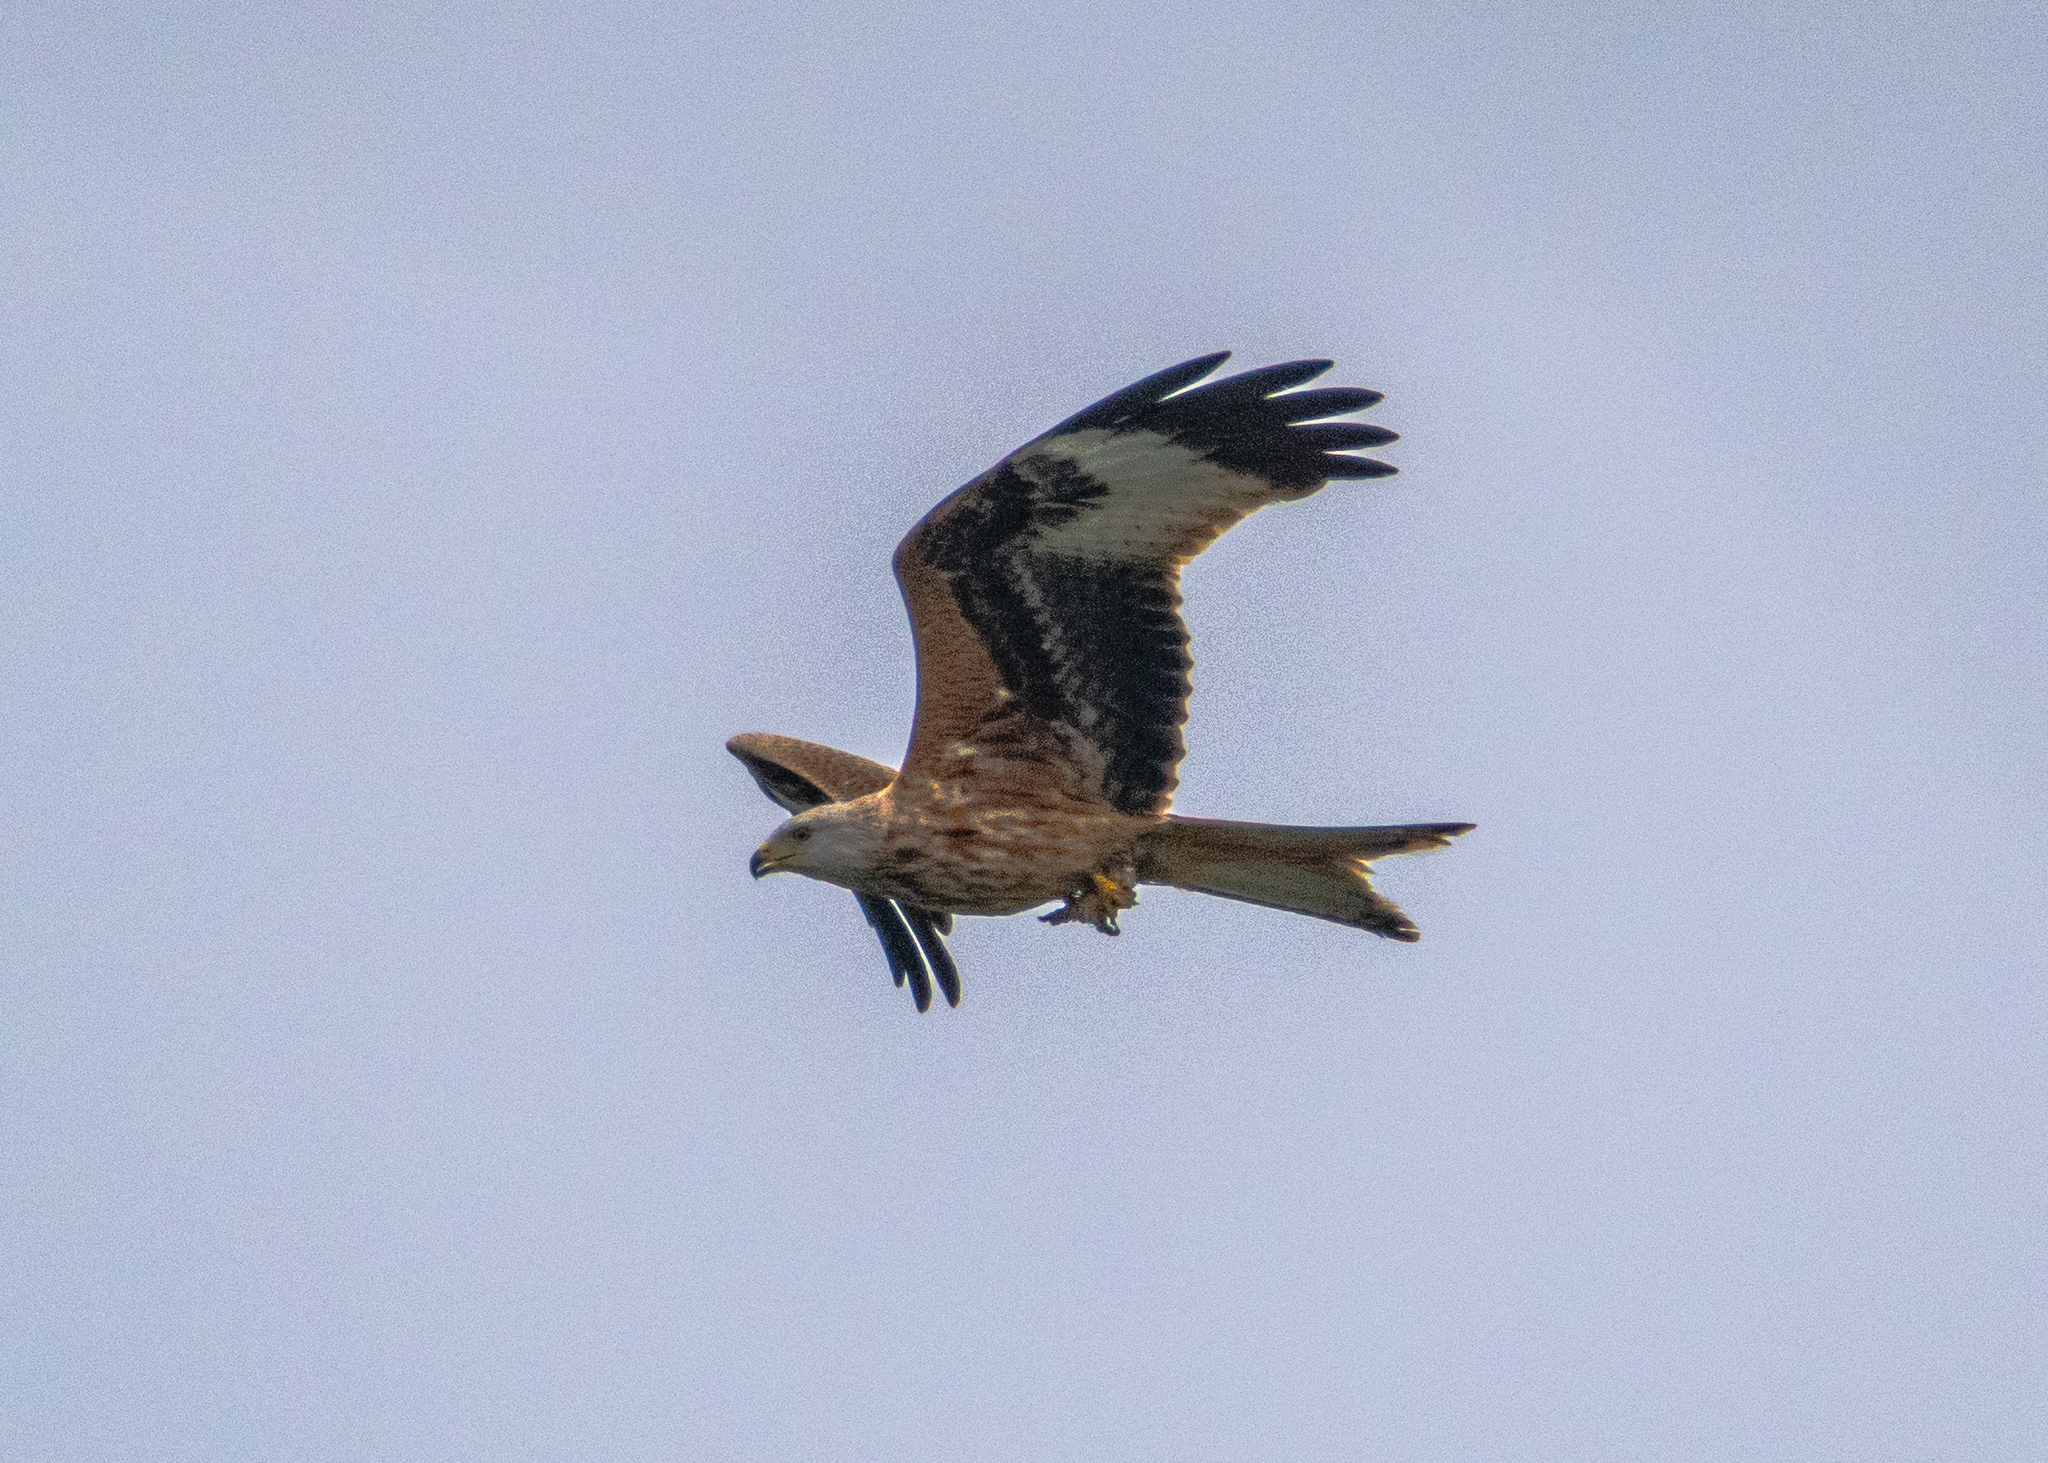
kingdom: Animalia
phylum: Chordata
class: Aves
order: Accipitriformes
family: Accipitridae
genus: Milvus
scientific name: Milvus milvus
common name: Red kite
